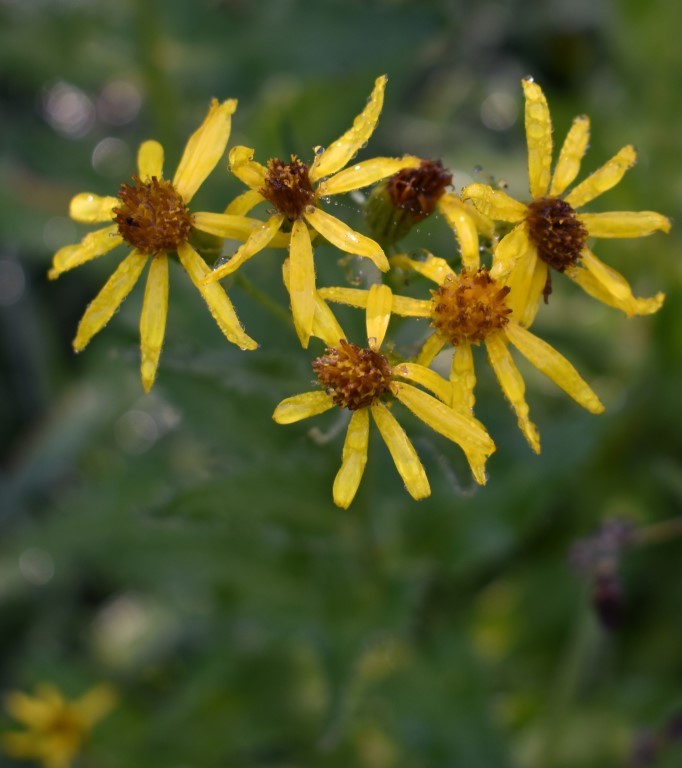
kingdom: Plantae
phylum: Tracheophyta
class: Magnoliopsida
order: Asterales
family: Asteraceae
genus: Senecio
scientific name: Senecio triangularis
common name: Arrowleaf butterweed
